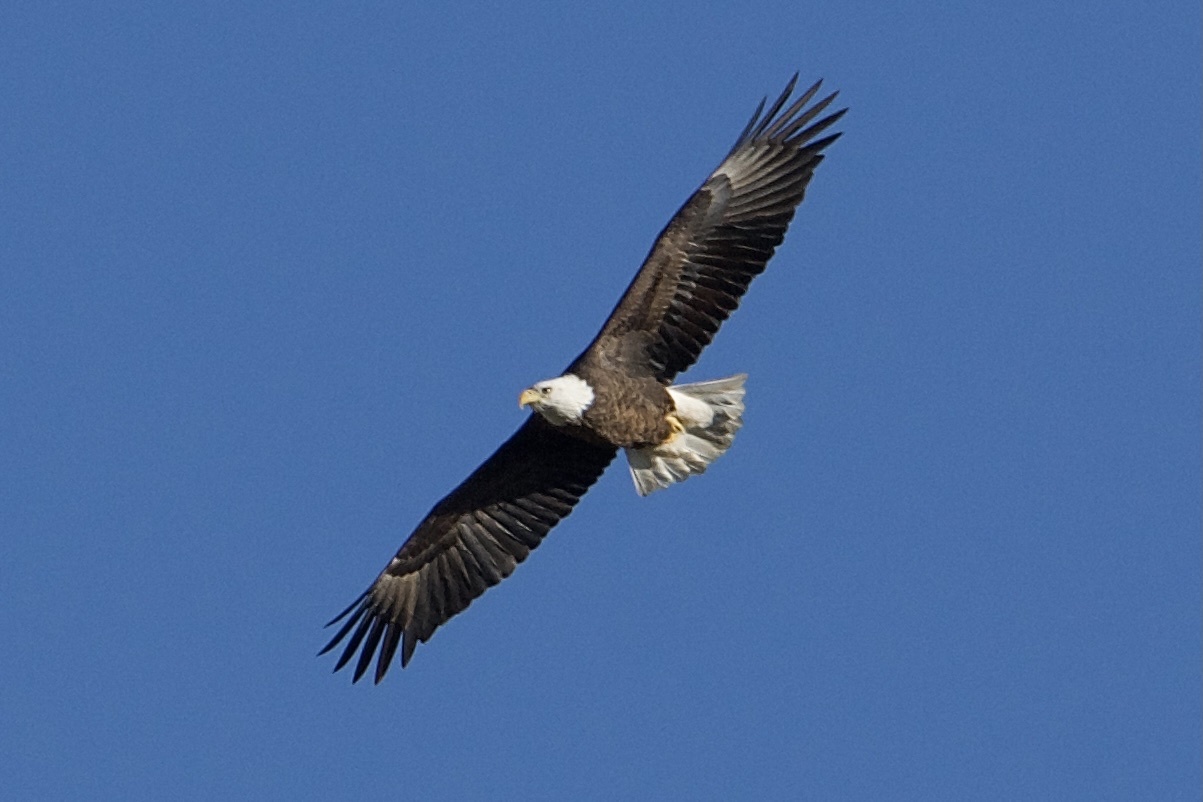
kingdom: Animalia
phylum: Chordata
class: Aves
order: Accipitriformes
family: Accipitridae
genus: Haliaeetus
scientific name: Haliaeetus leucocephalus
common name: Bald eagle
